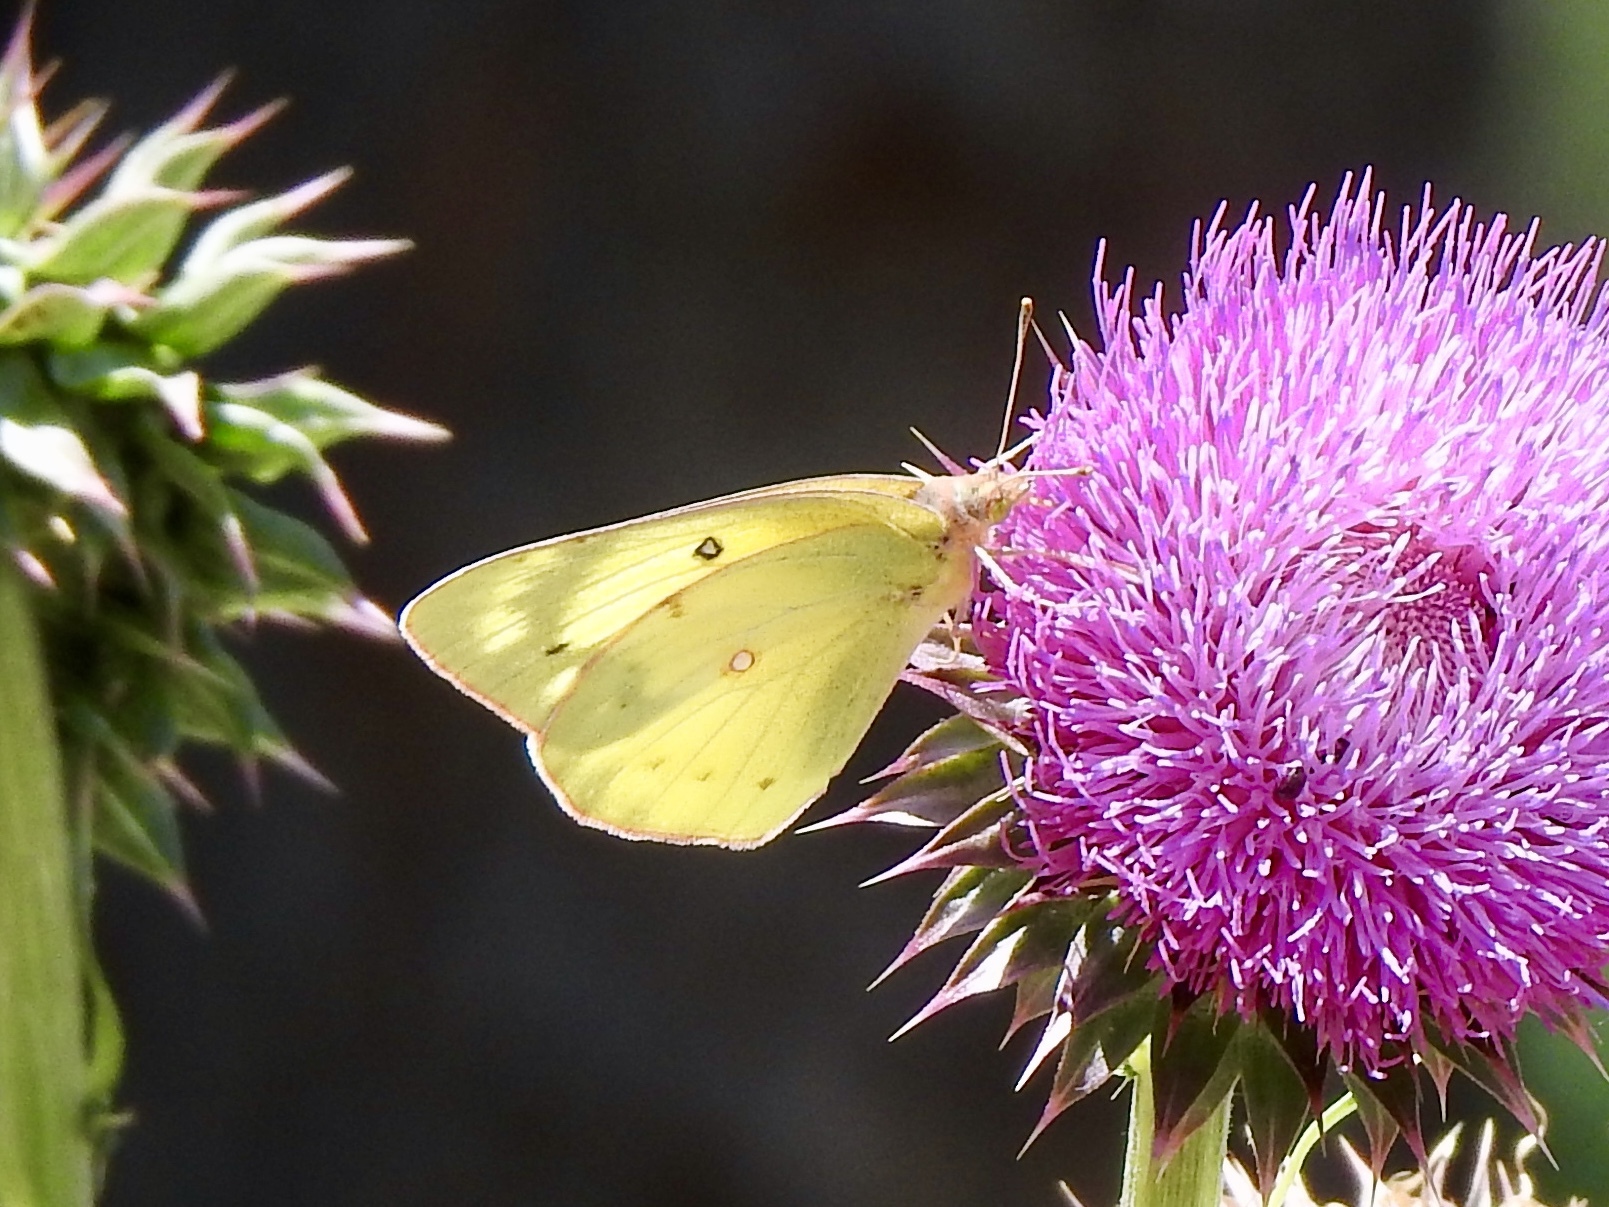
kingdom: Animalia
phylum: Arthropoda
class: Insecta
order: Lepidoptera
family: Pieridae
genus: Colias
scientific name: Colias eurytheme
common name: Alfalfa butterfly
